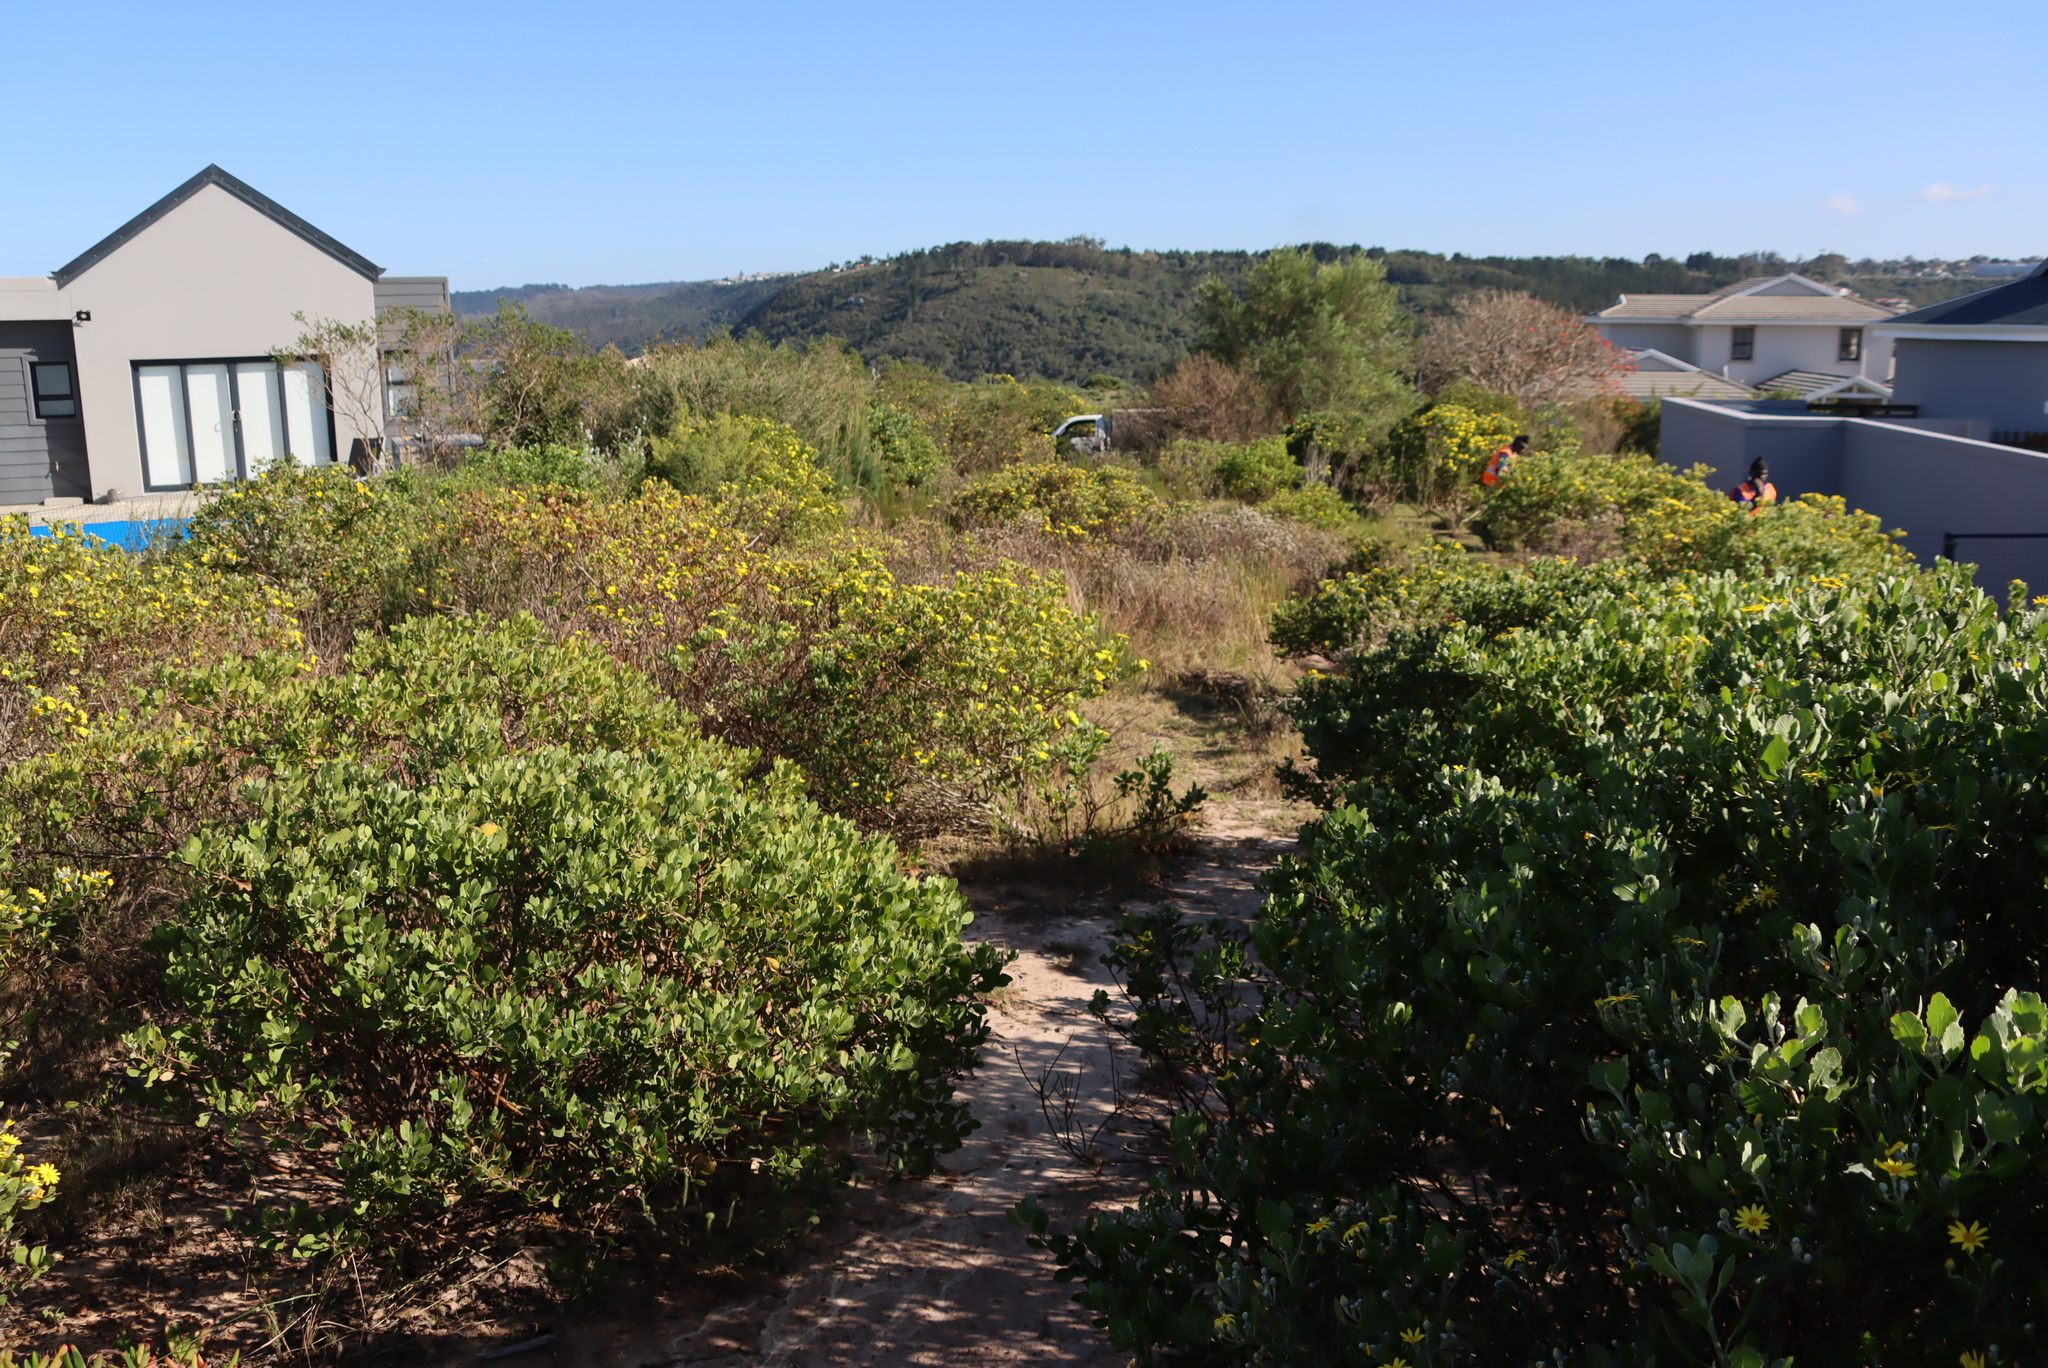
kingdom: Plantae
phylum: Tracheophyta
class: Magnoliopsida
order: Asterales
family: Asteraceae
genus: Osteospermum
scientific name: Osteospermum moniliferum
